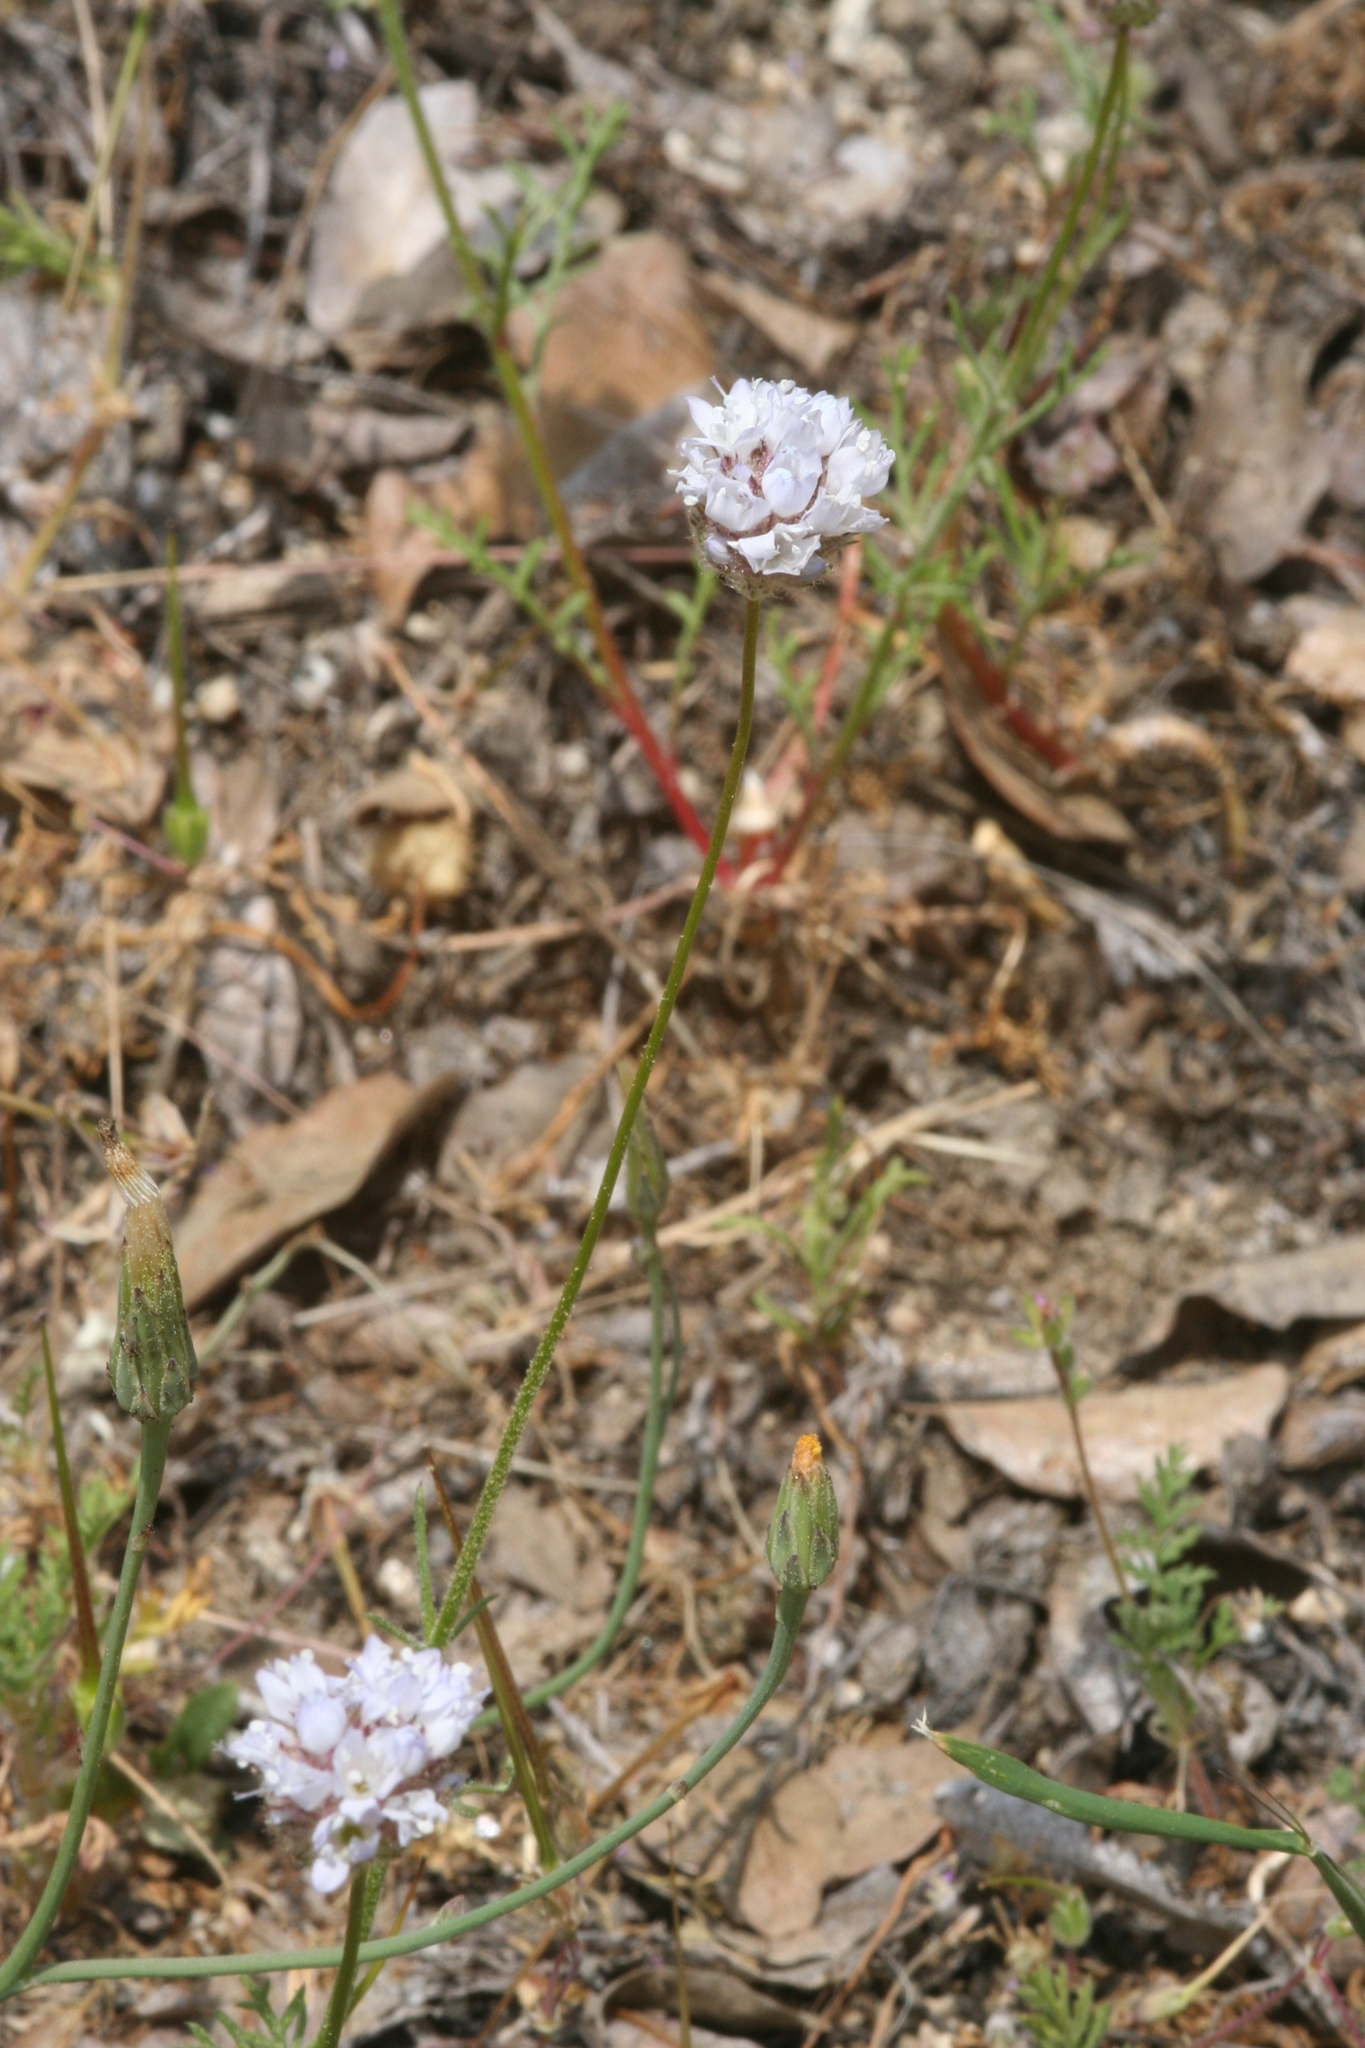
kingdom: Plantae
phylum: Tracheophyta
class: Magnoliopsida
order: Ericales
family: Polemoniaceae
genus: Gilia
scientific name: Gilia capitata
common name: Bluehead gilia
